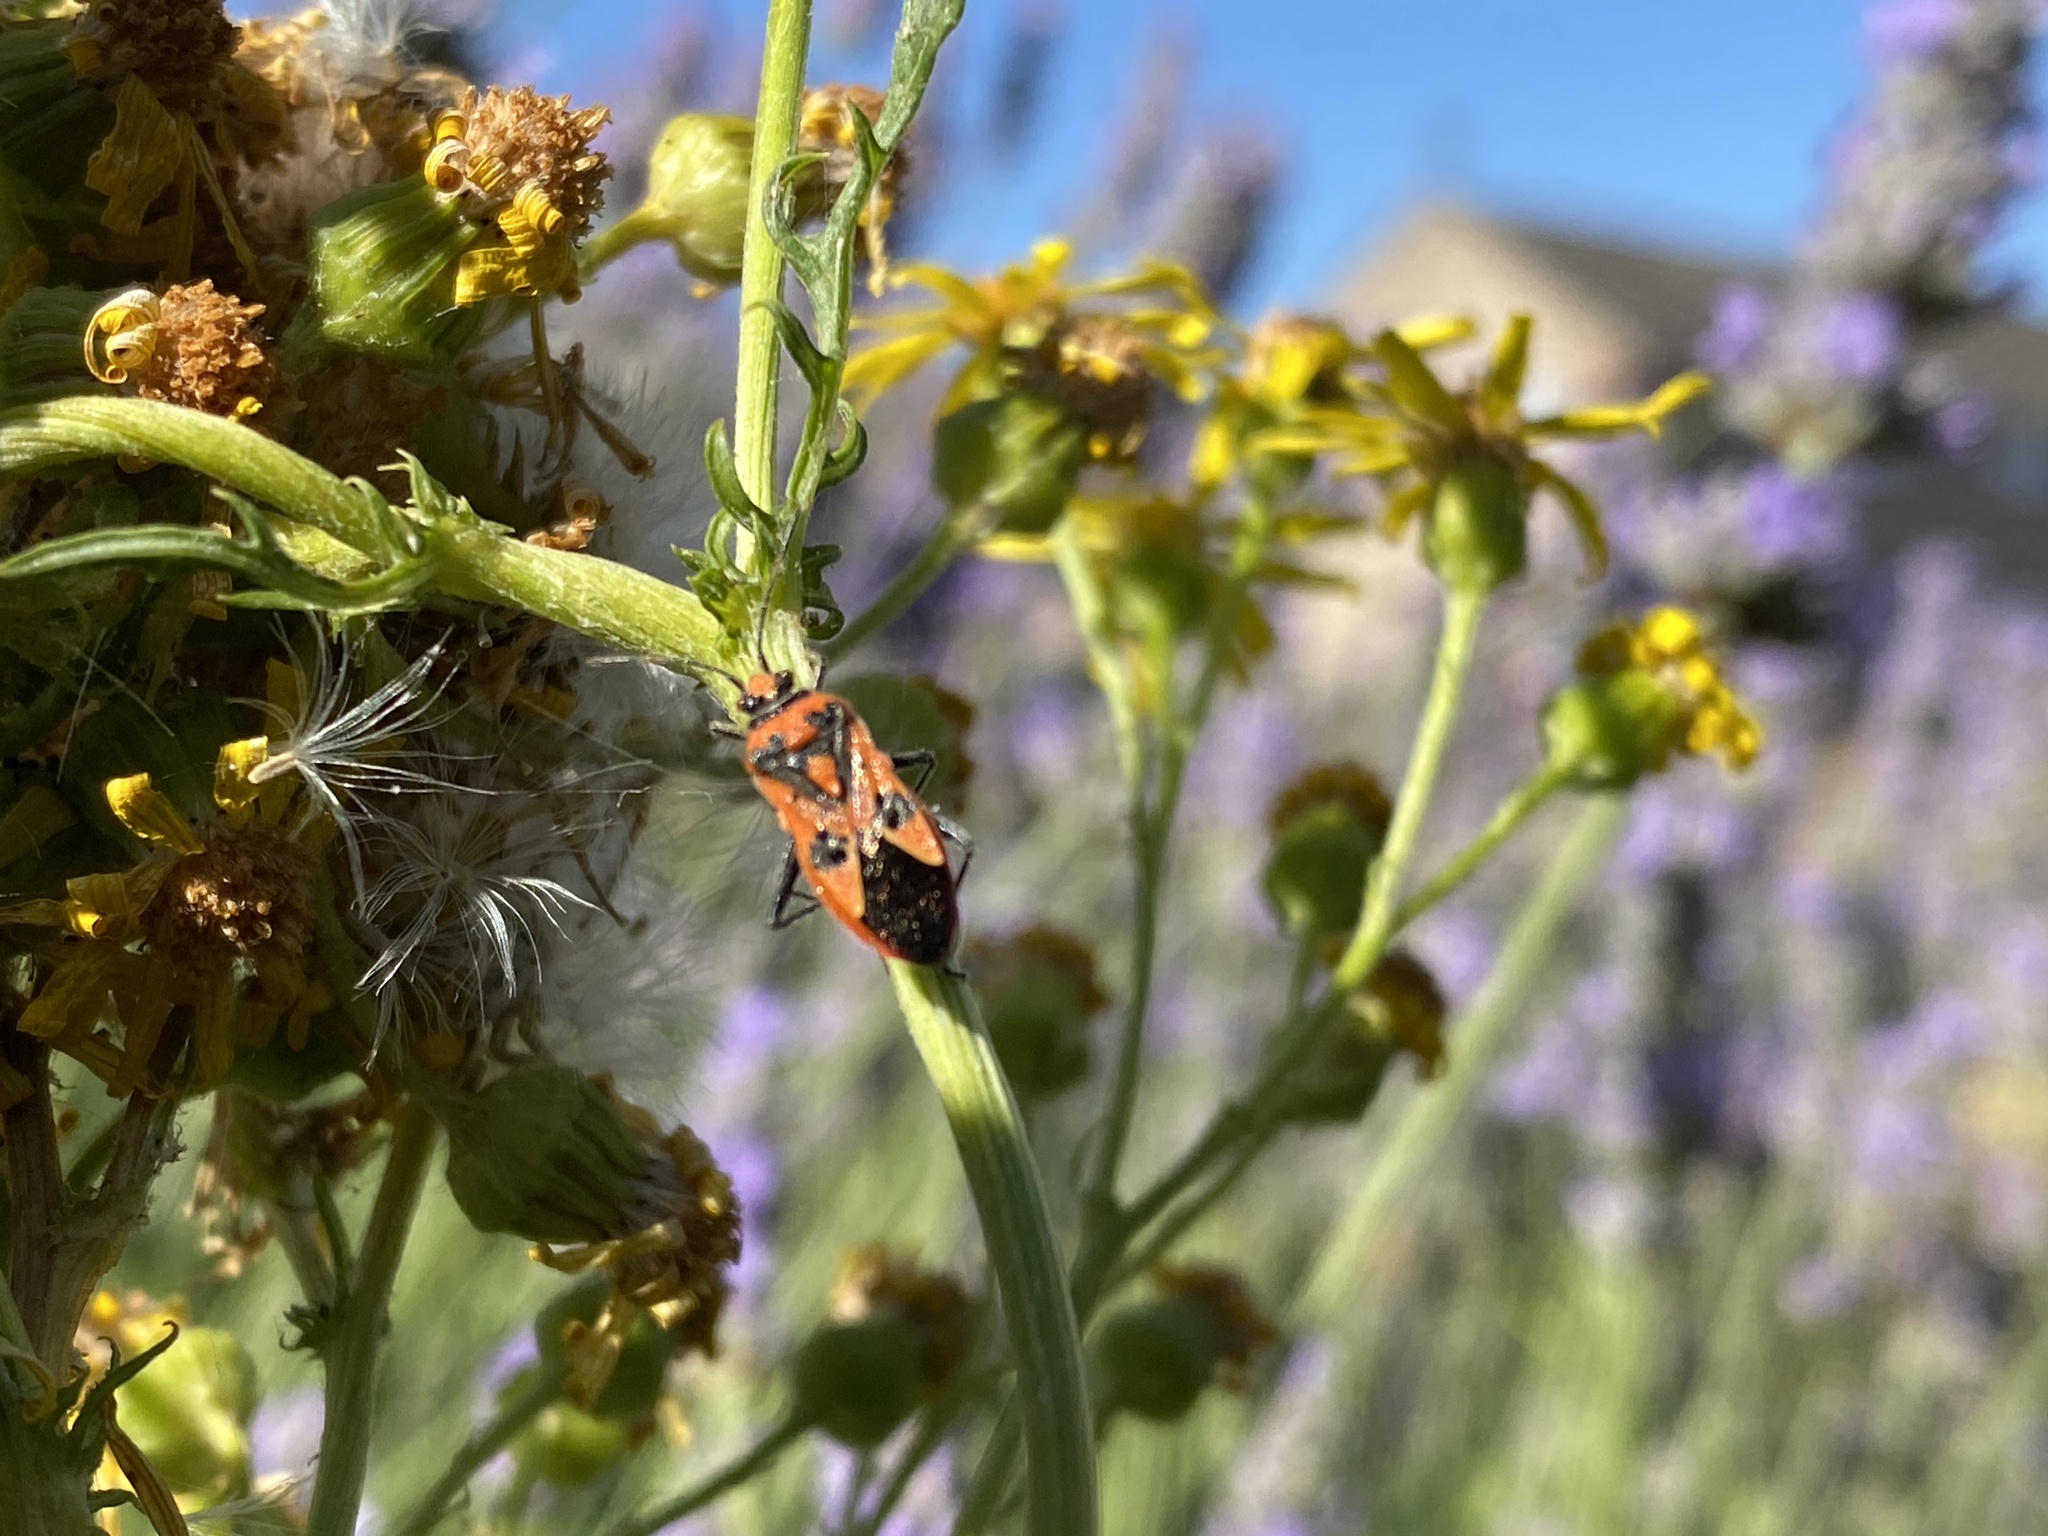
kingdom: Animalia
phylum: Arthropoda
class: Insecta
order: Hemiptera
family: Rhopalidae
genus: Corizus
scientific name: Corizus hyoscyami
